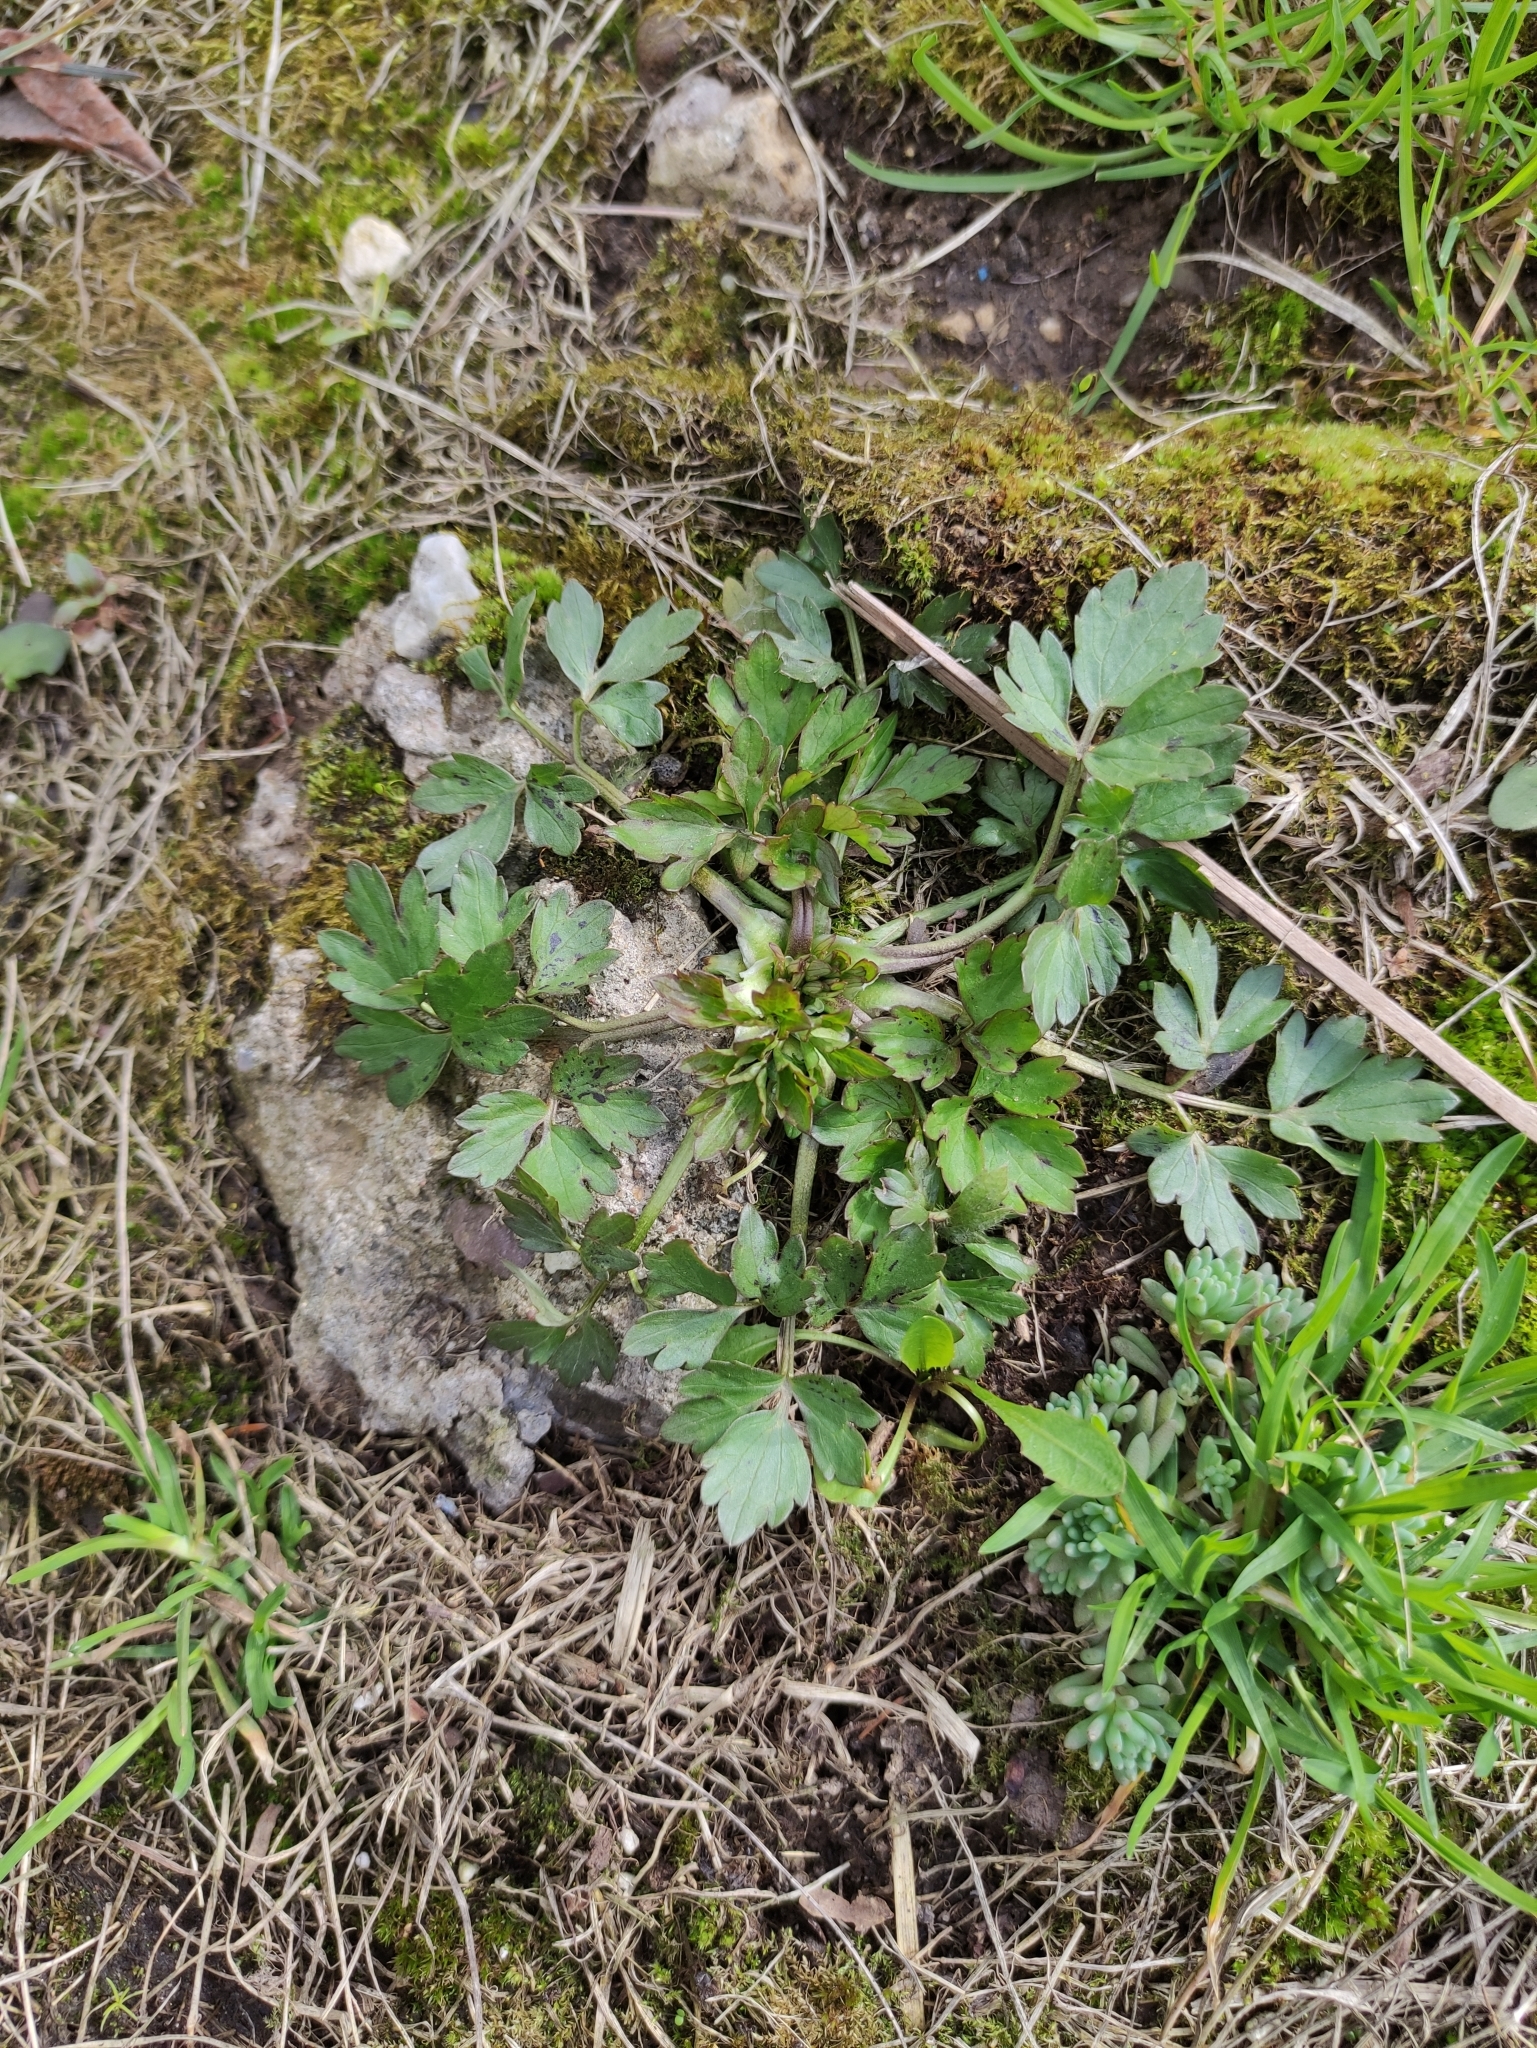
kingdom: Plantae
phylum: Tracheophyta
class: Magnoliopsida
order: Ranunculales
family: Ranunculaceae
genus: Ranunculus
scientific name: Ranunculus repens
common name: Creeping buttercup
